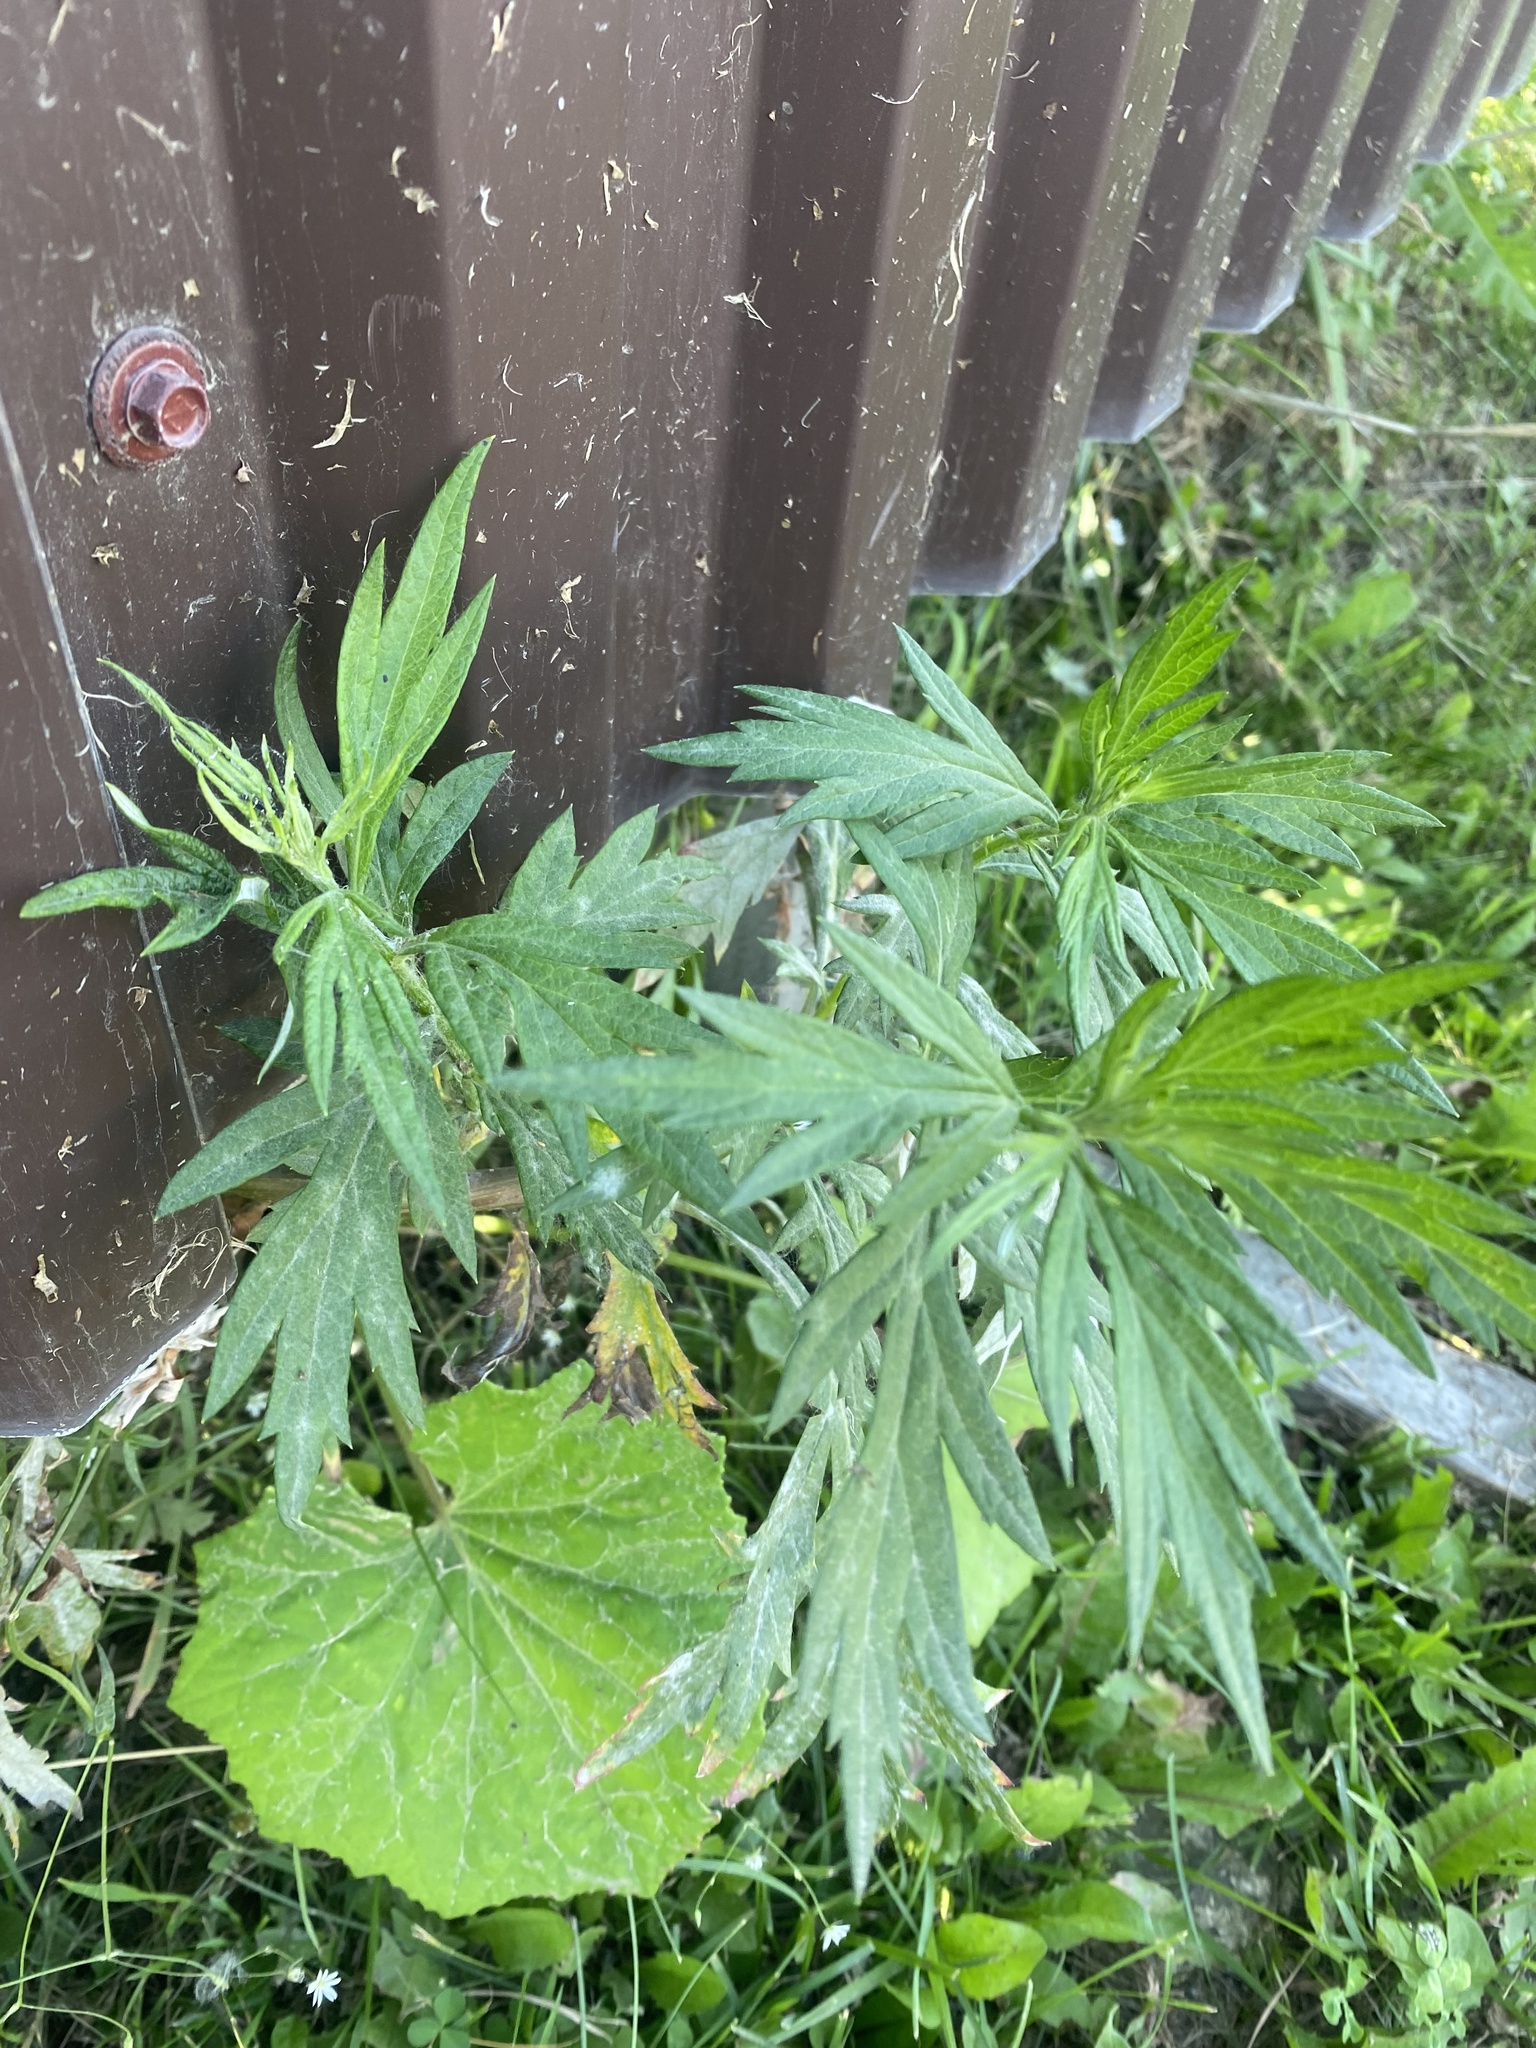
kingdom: Plantae
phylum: Tracheophyta
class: Magnoliopsida
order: Asterales
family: Asteraceae
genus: Artemisia
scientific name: Artemisia vulgaris
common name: Mugwort
